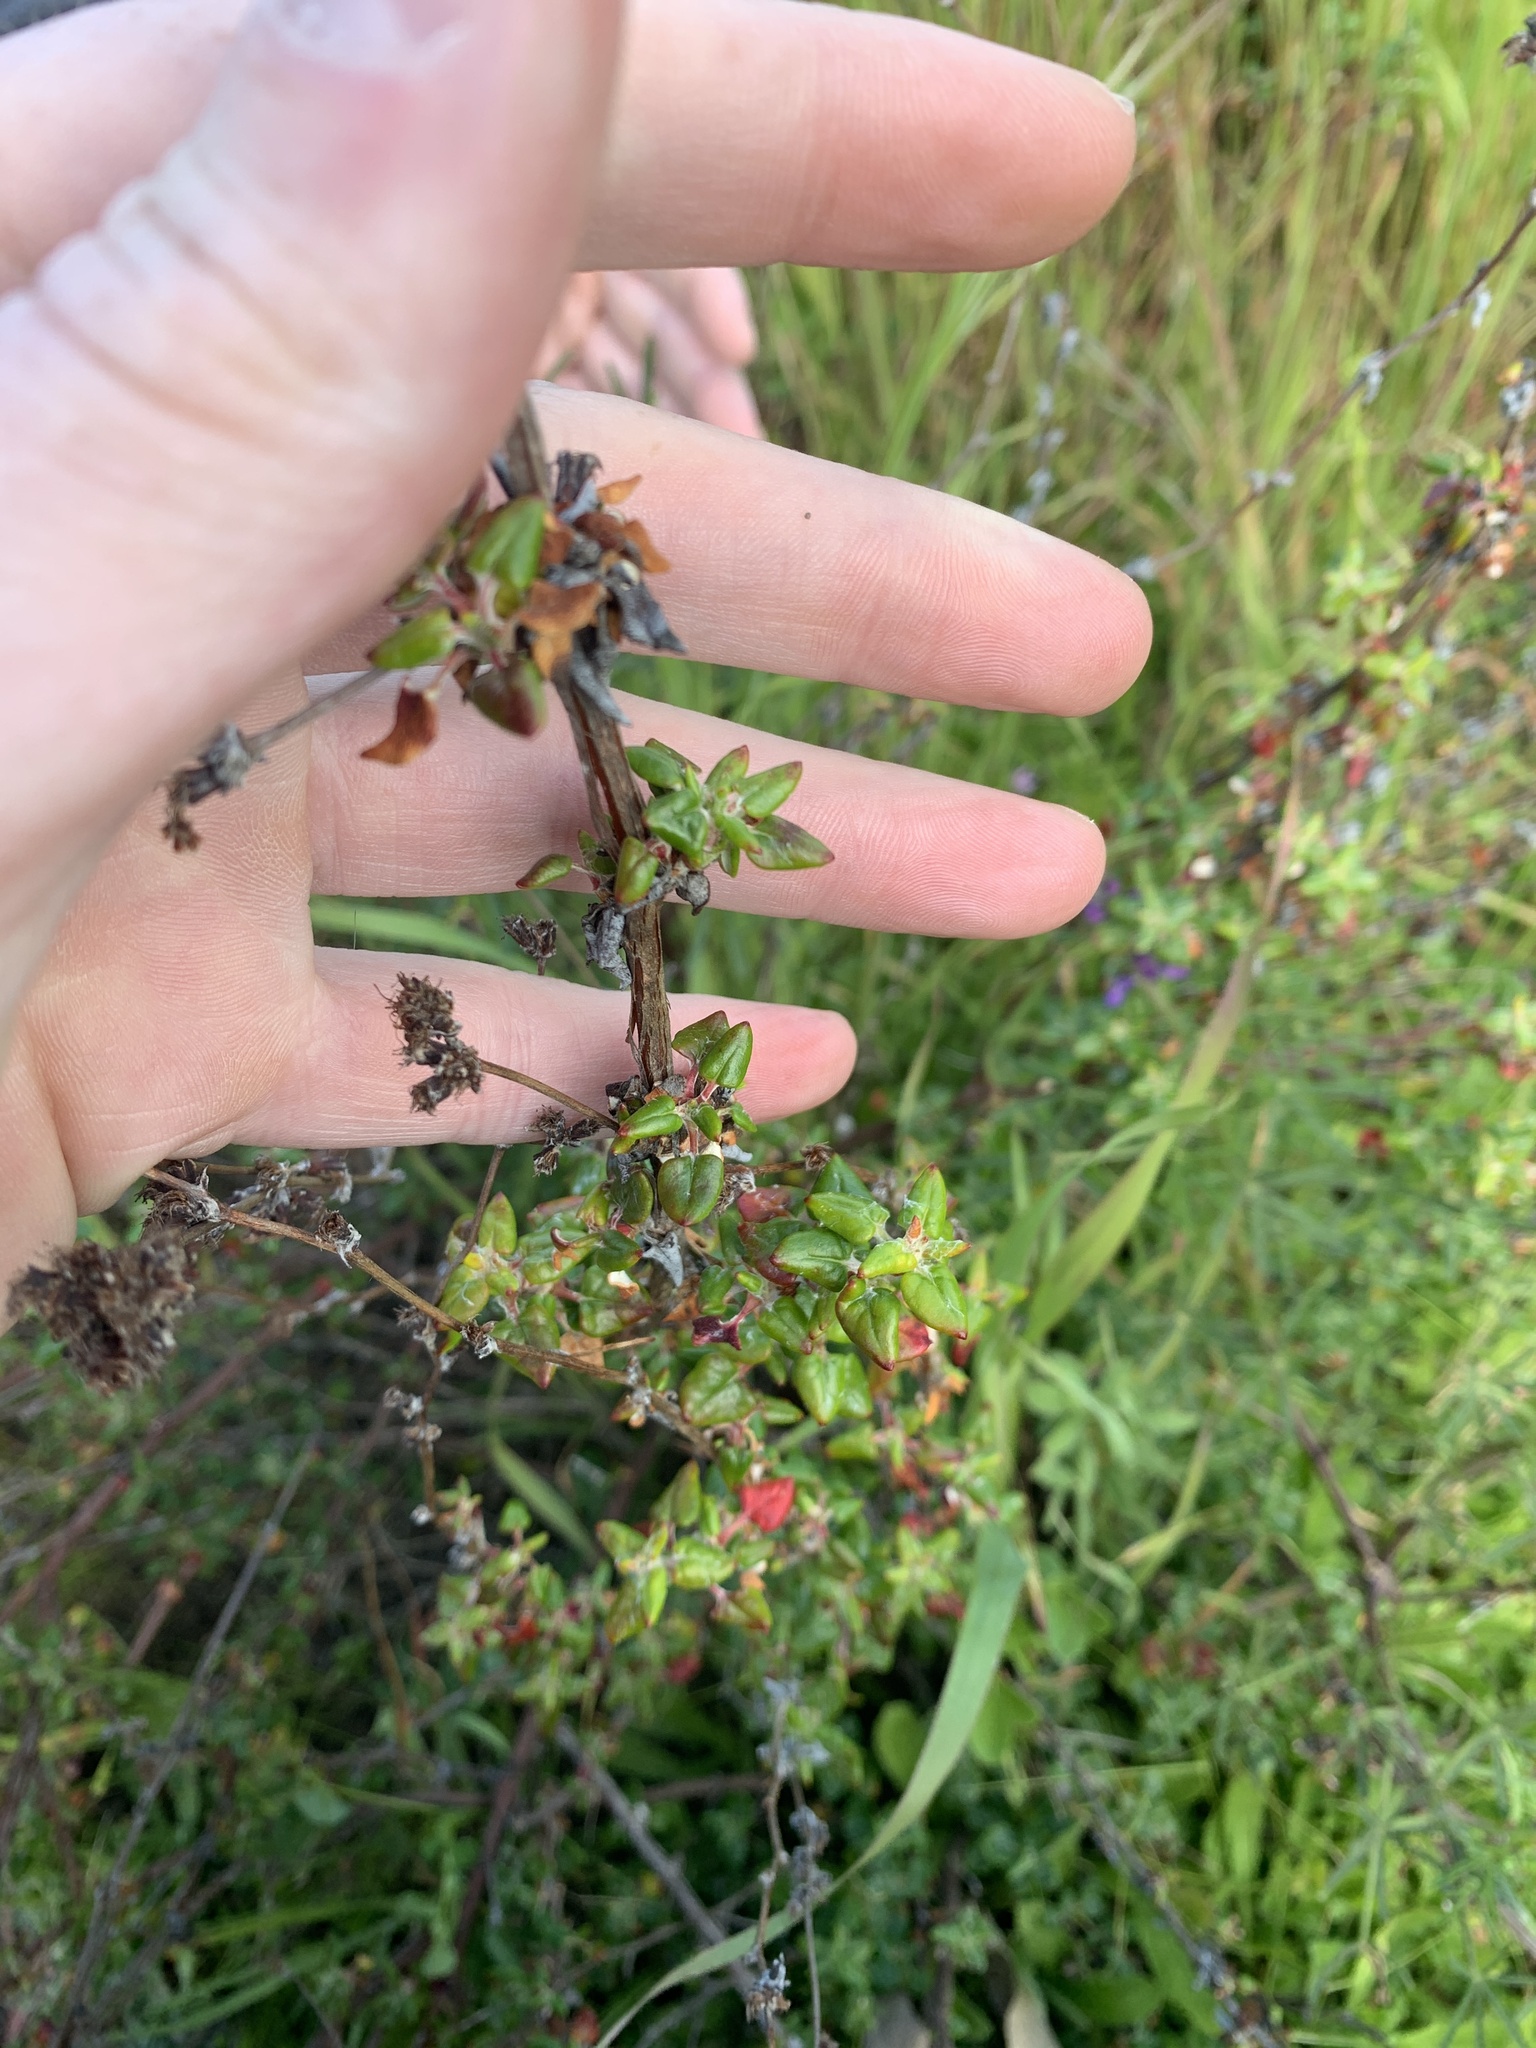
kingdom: Plantae
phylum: Tracheophyta
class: Magnoliopsida
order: Caryophyllales
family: Polygonaceae
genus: Eriogonum
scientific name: Eriogonum parvifolium
